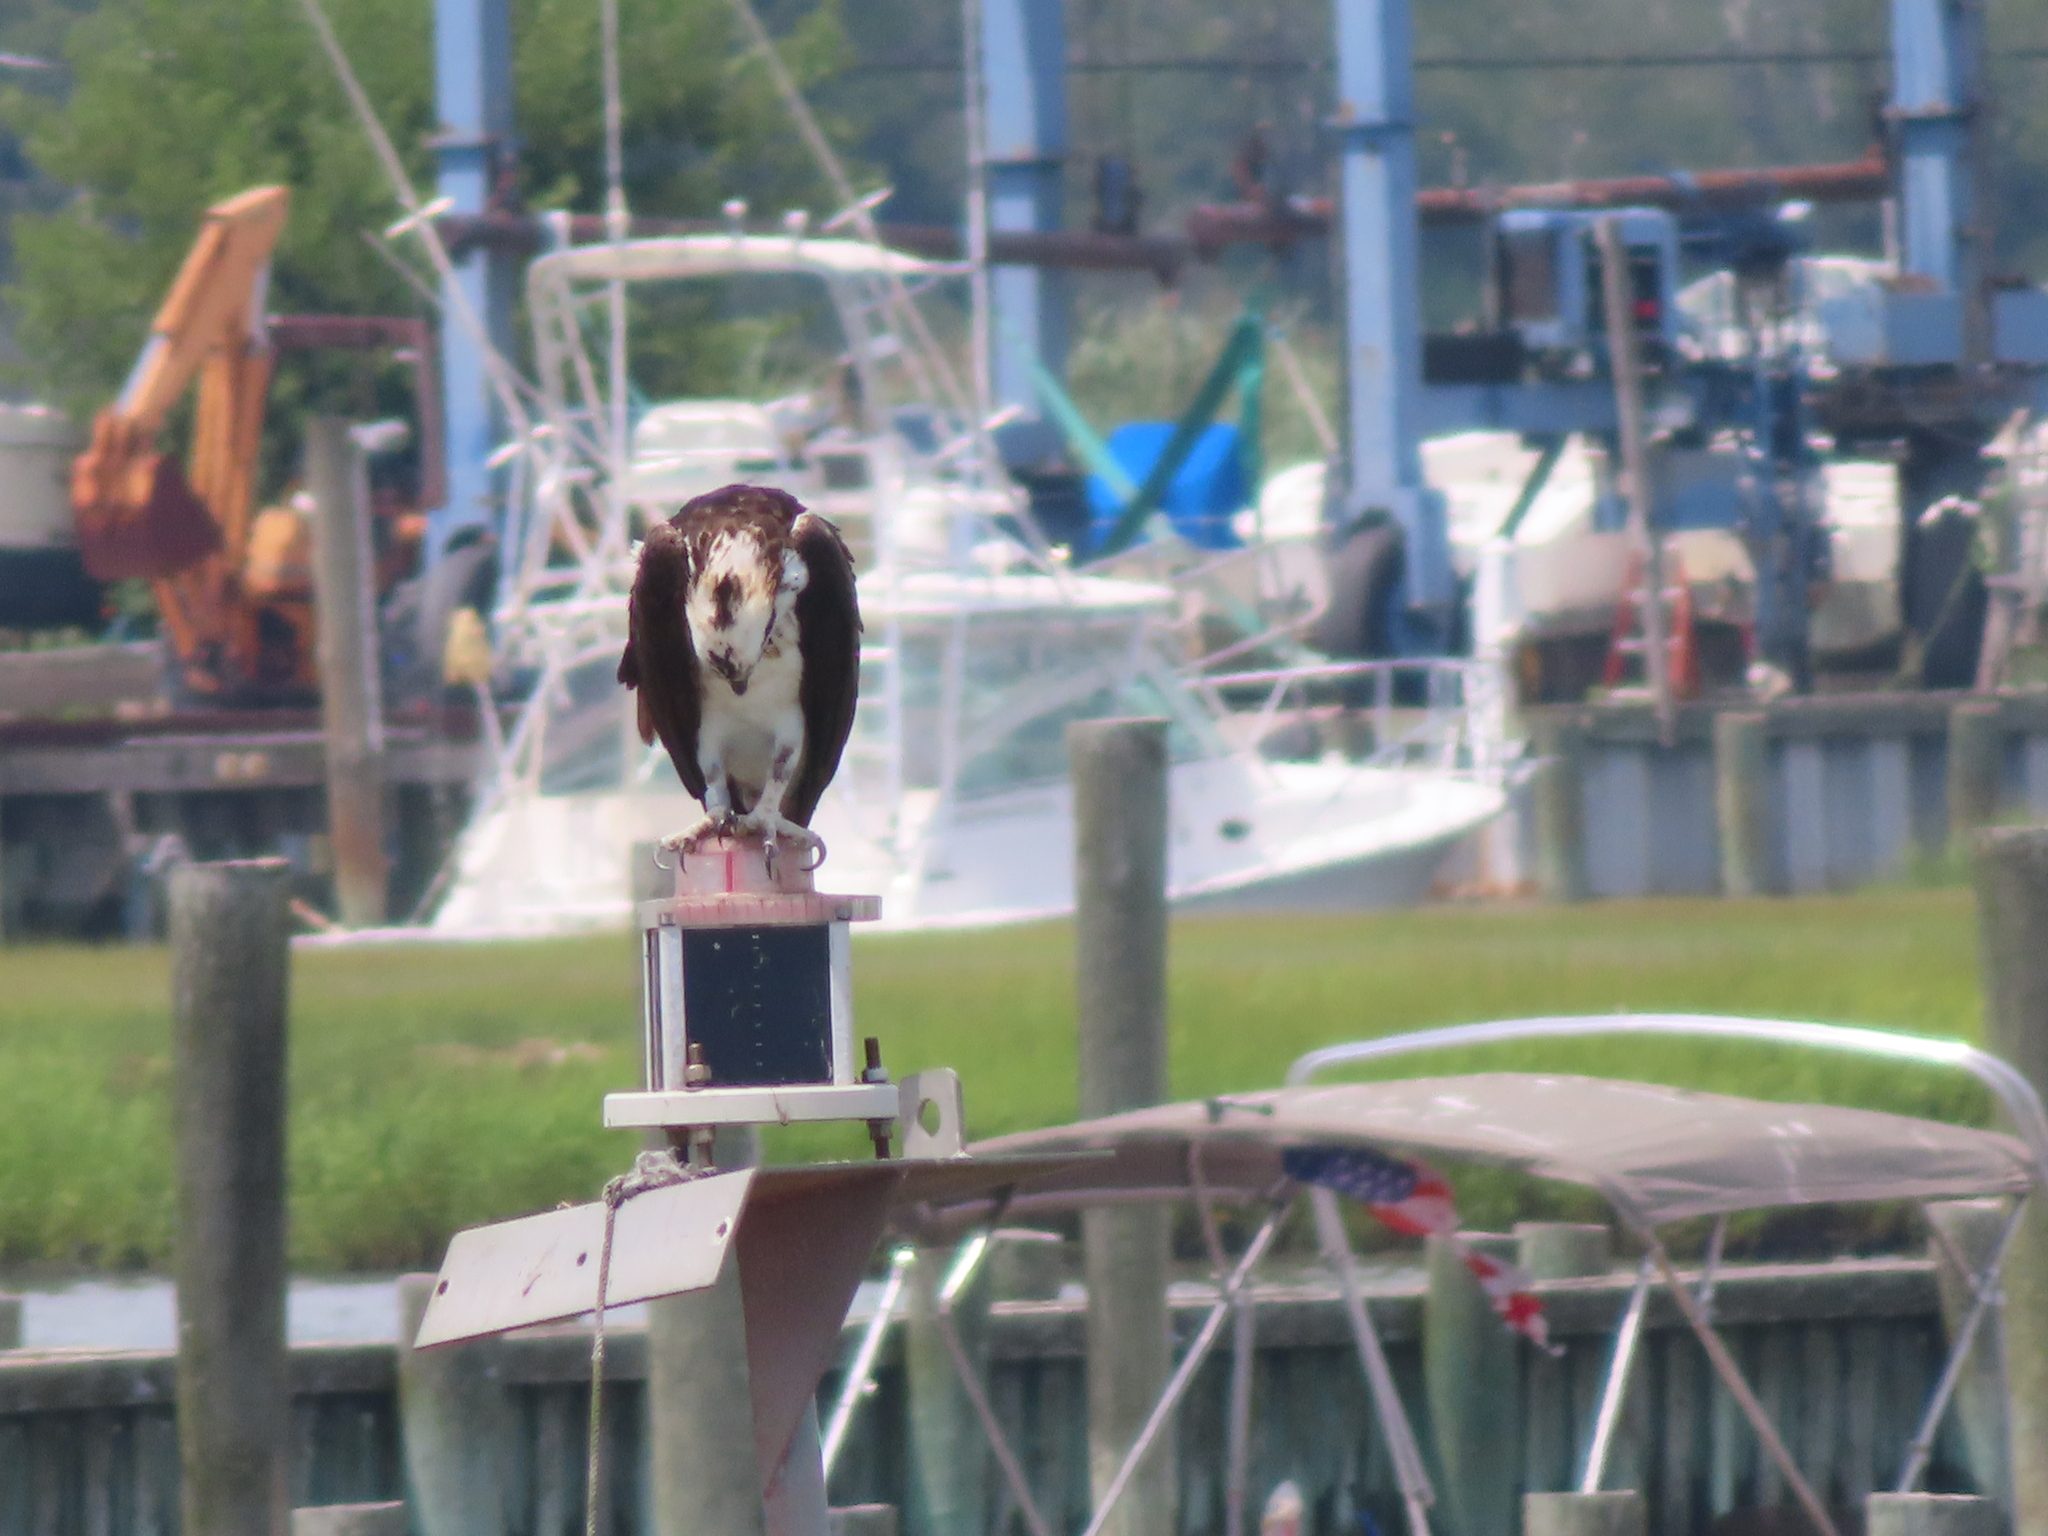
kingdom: Animalia
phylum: Chordata
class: Aves
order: Accipitriformes
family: Pandionidae
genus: Pandion
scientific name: Pandion haliaetus
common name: Osprey
